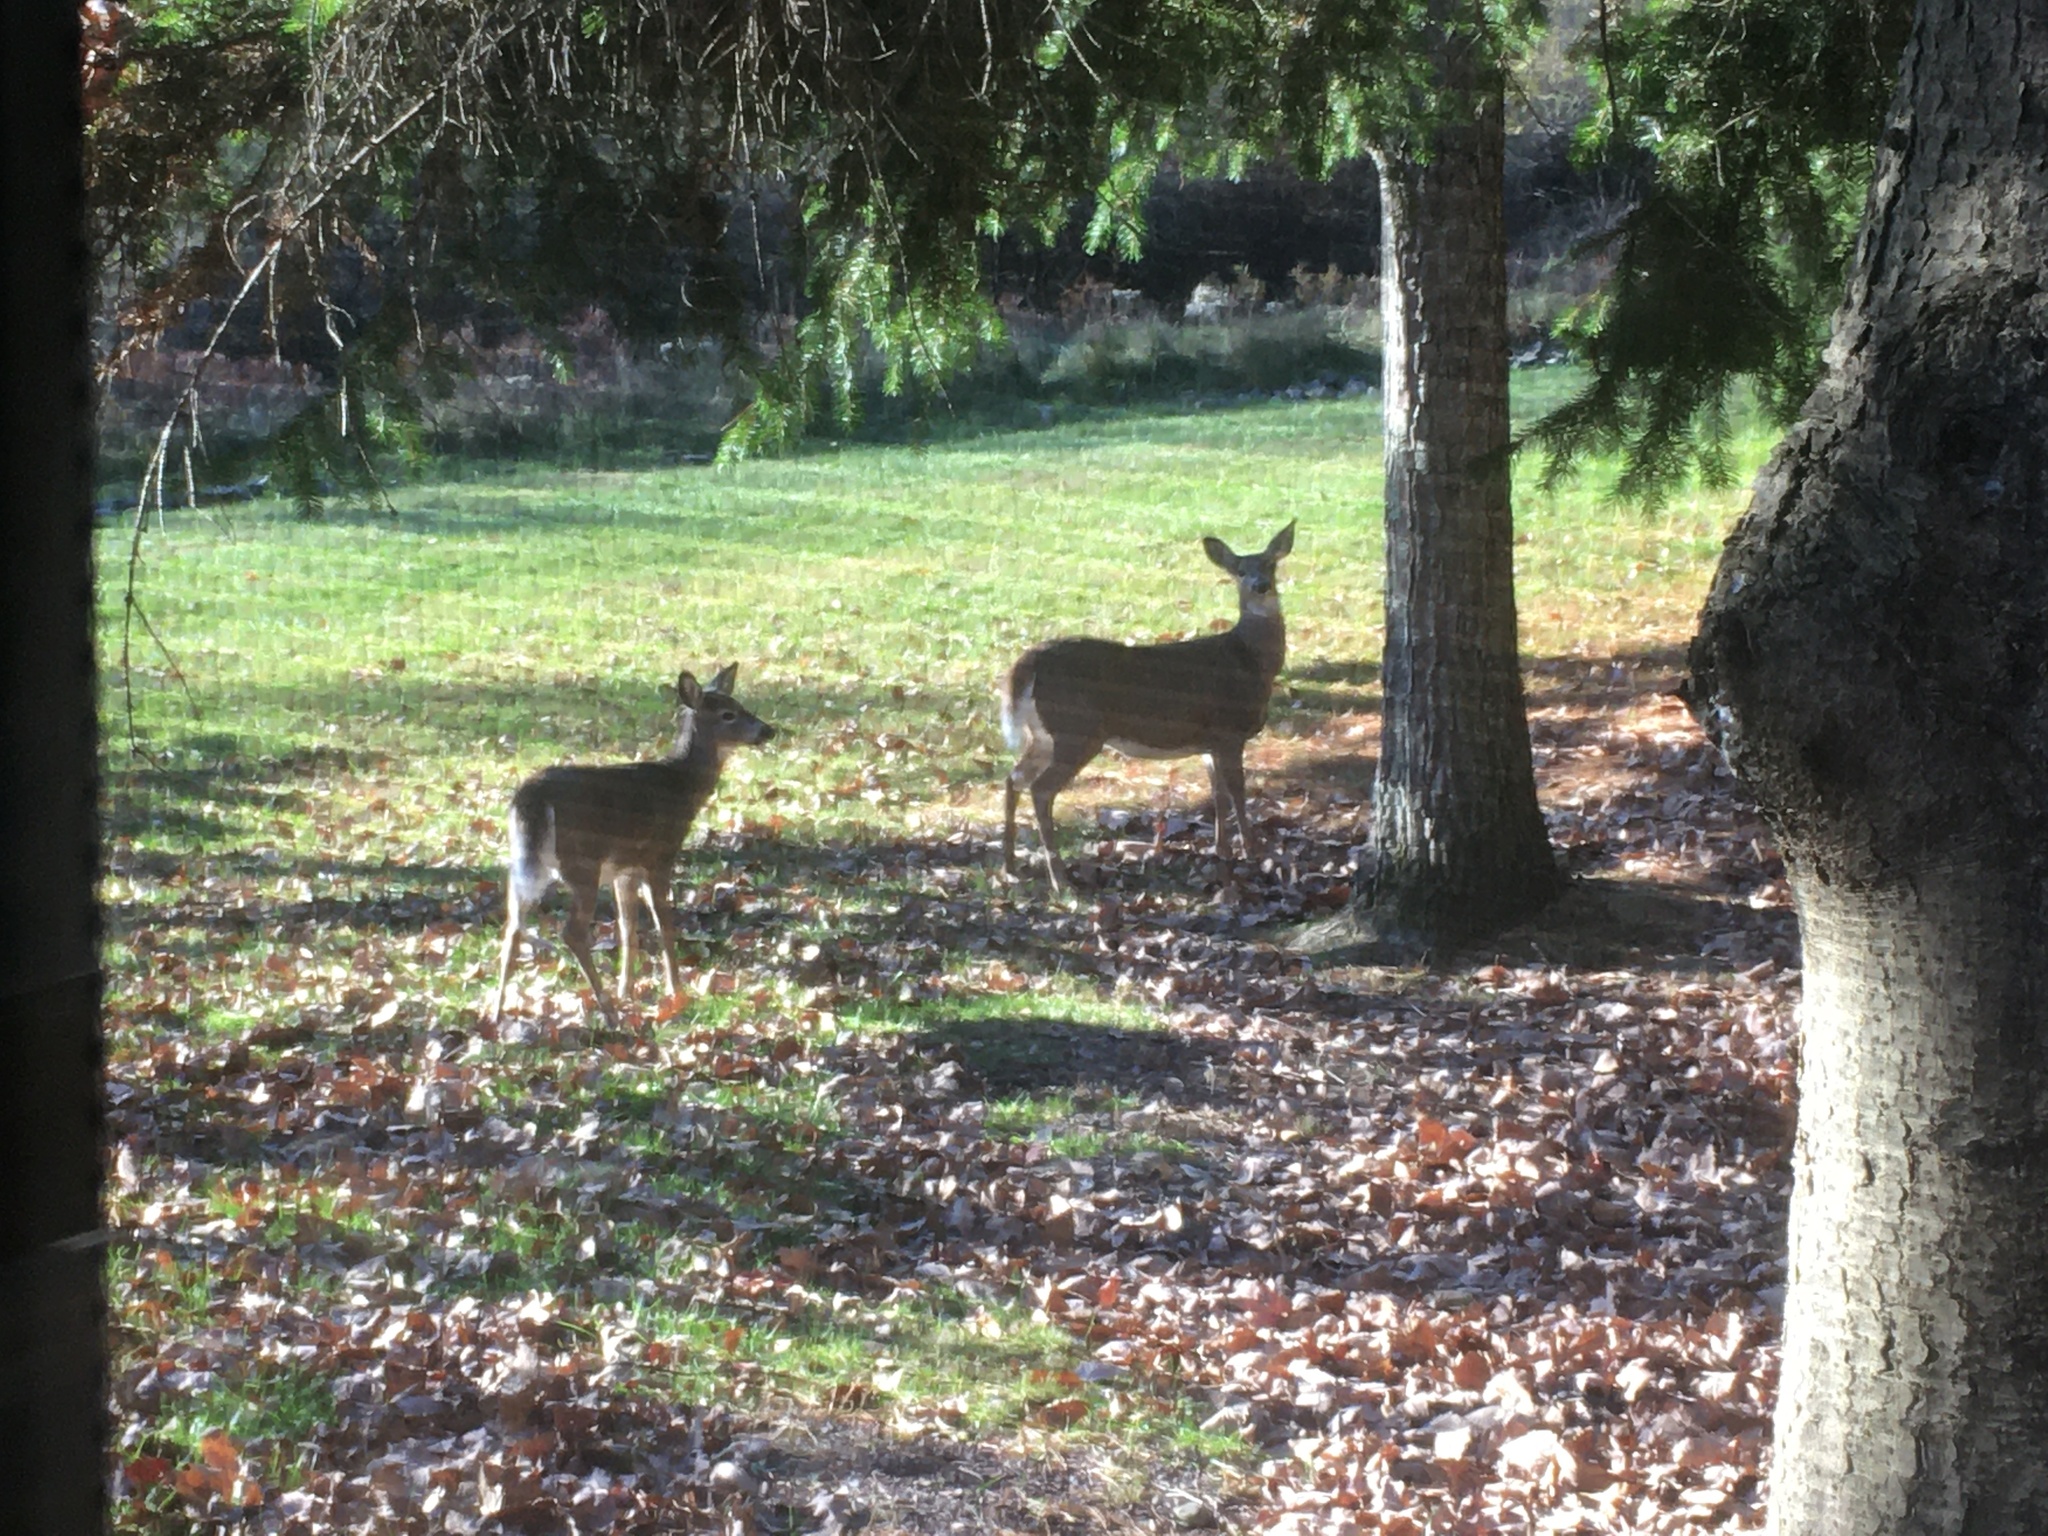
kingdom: Animalia
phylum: Chordata
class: Mammalia
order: Artiodactyla
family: Cervidae
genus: Odocoileus
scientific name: Odocoileus virginianus
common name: White-tailed deer
